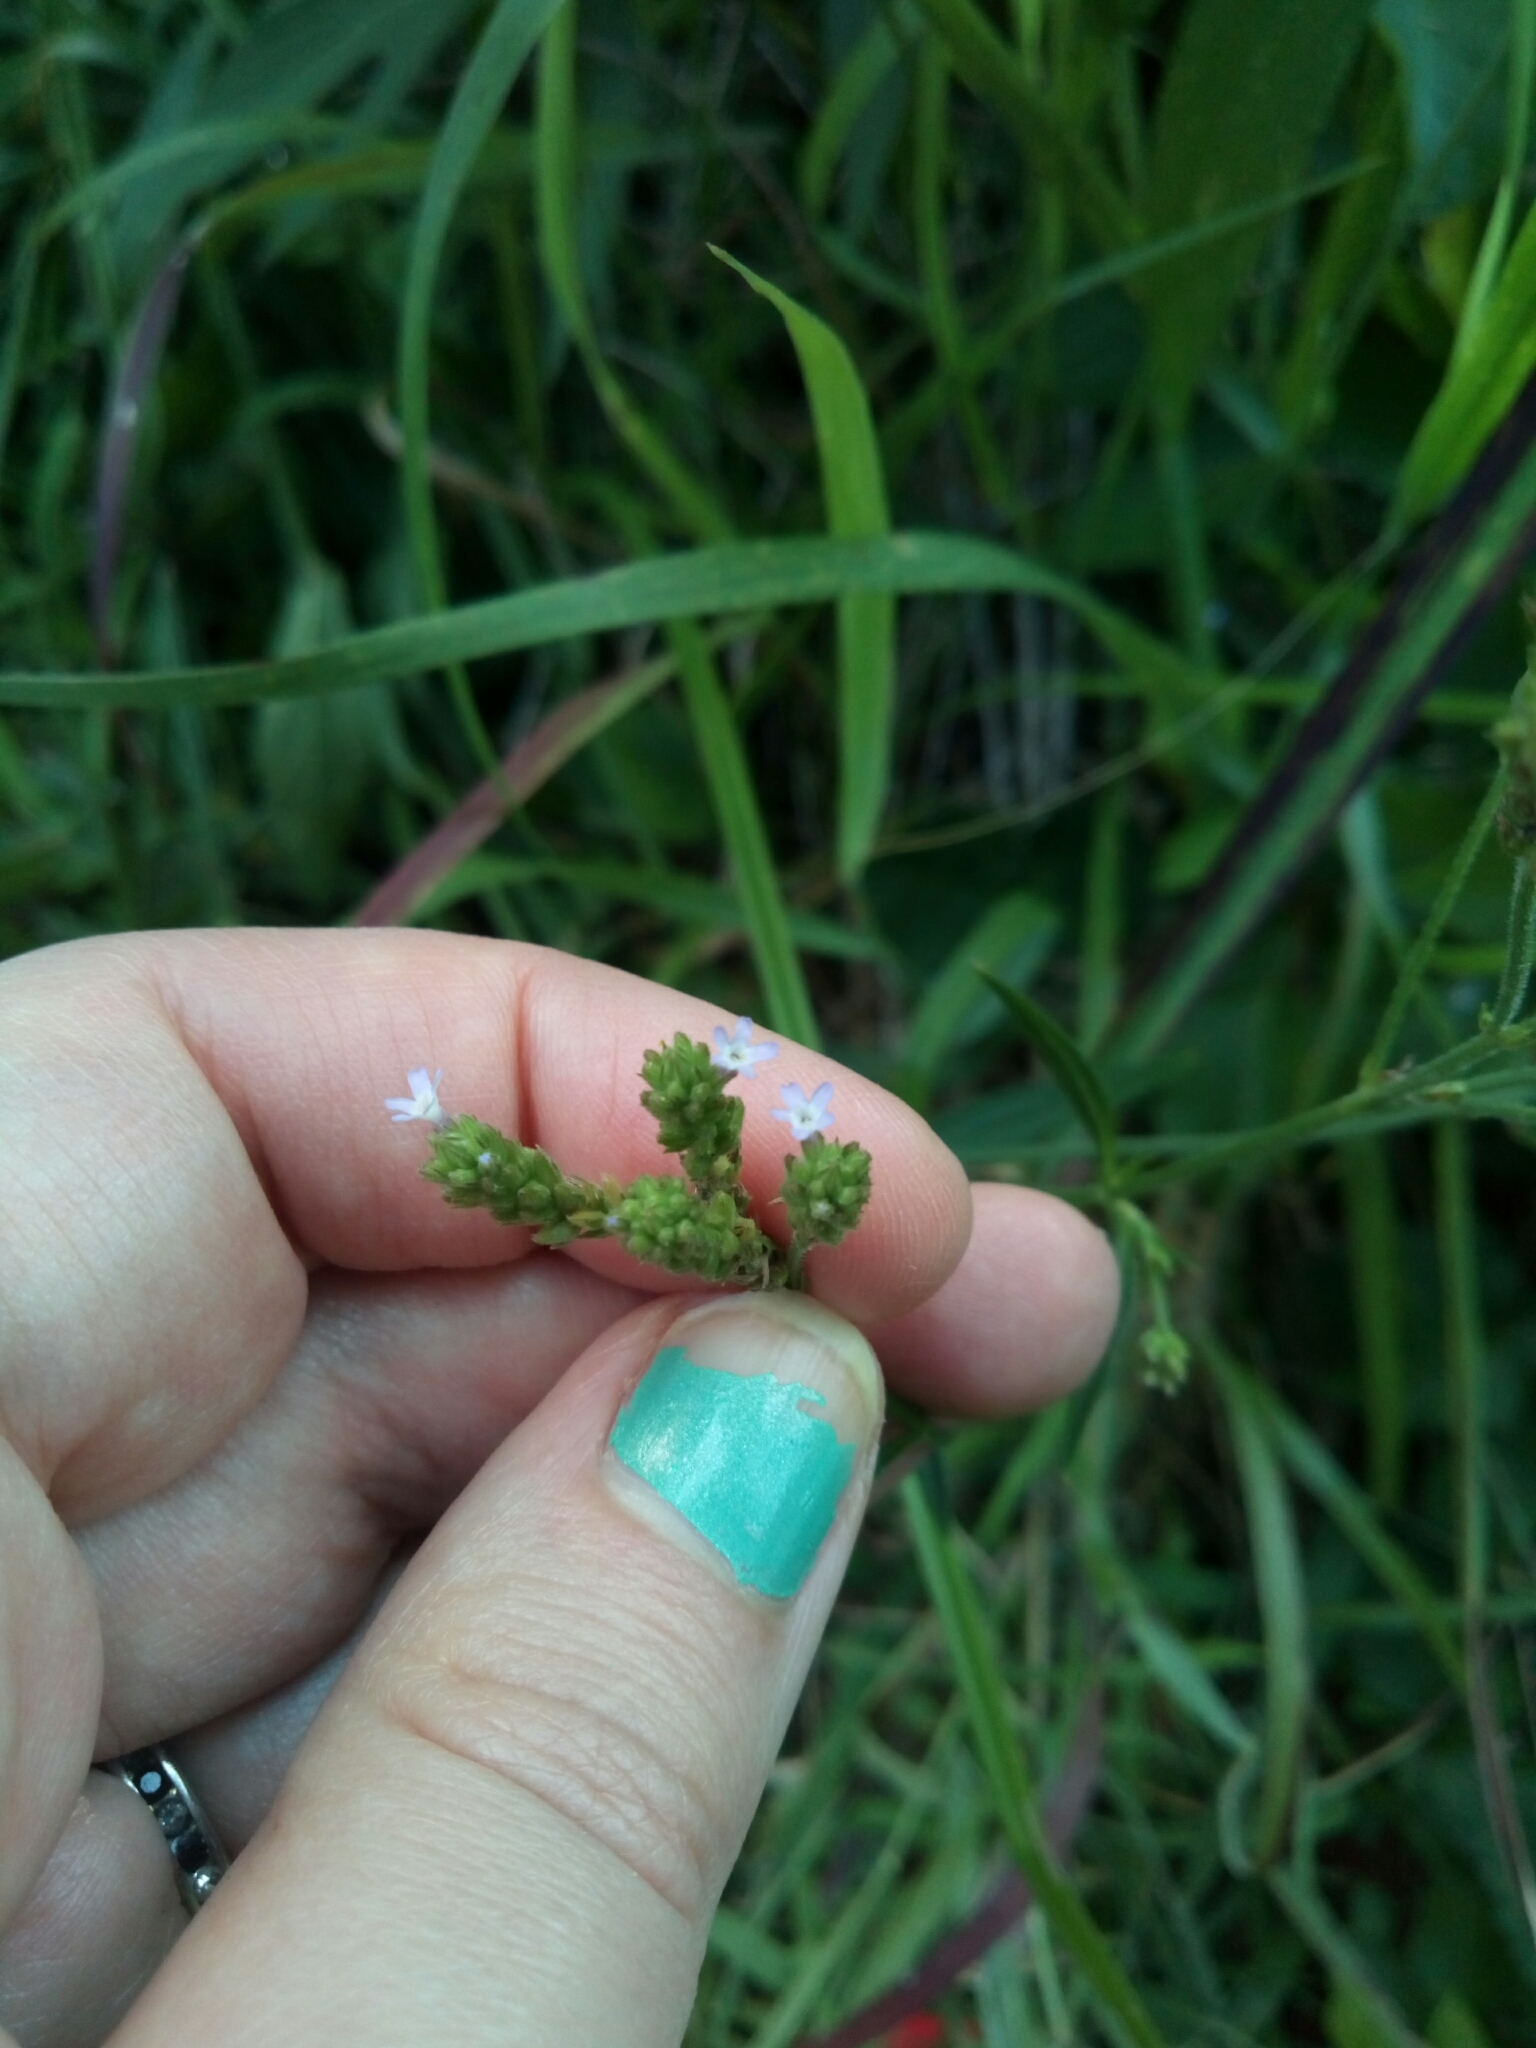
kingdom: Plantae
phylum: Tracheophyta
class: Magnoliopsida
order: Lamiales
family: Verbenaceae
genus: Verbena
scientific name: Verbena brasiliensis
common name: Brazilian vervain
